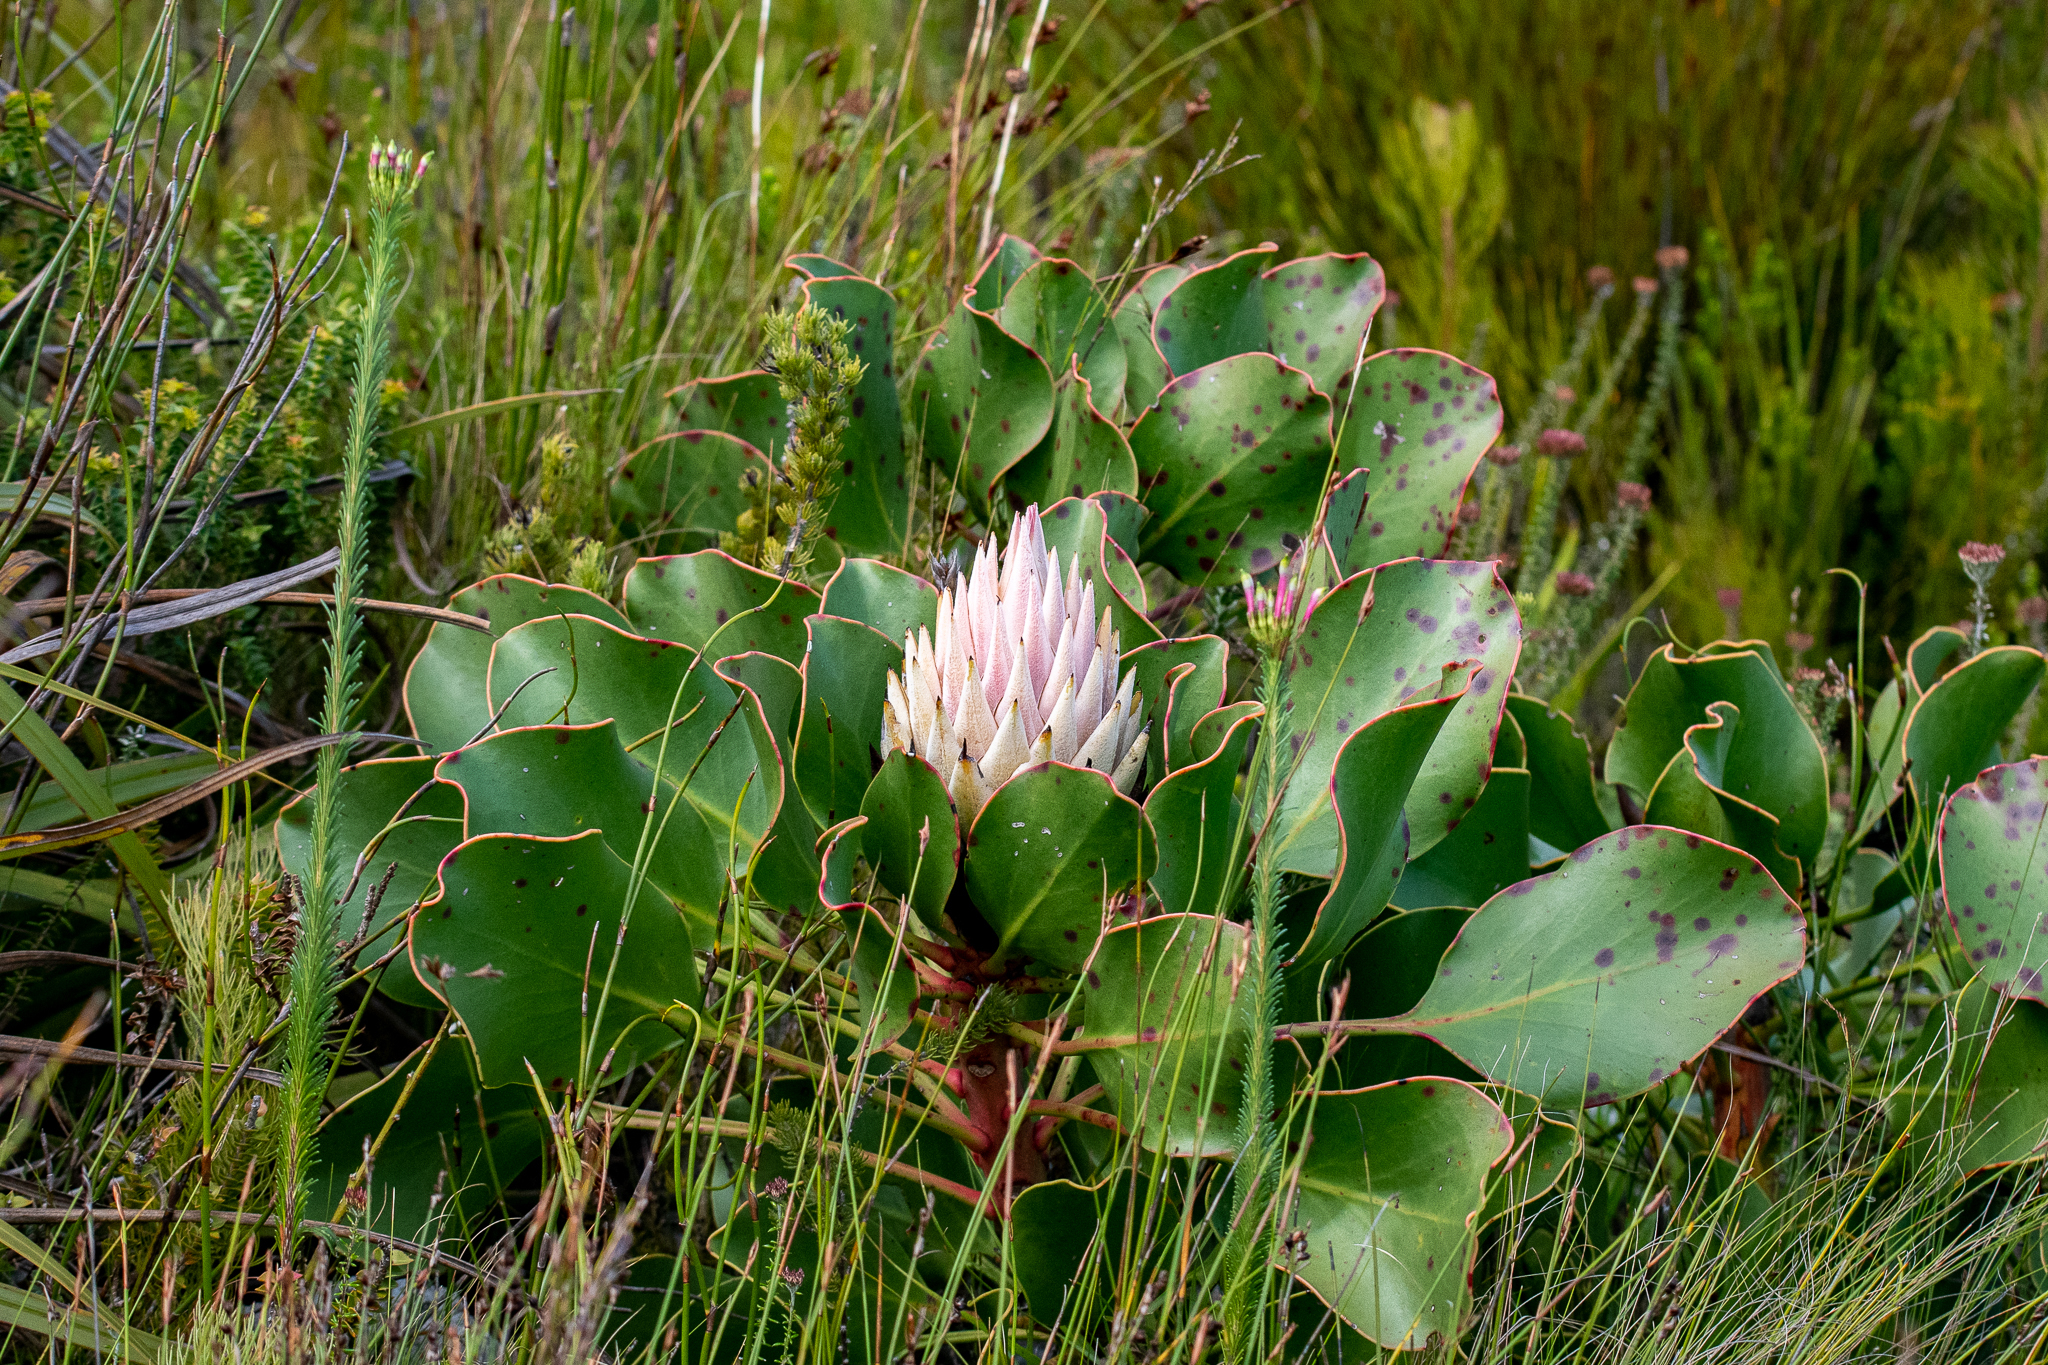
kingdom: Plantae
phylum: Tracheophyta
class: Magnoliopsida
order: Proteales
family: Proteaceae
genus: Protea
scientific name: Protea cynaroides
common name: King protea
